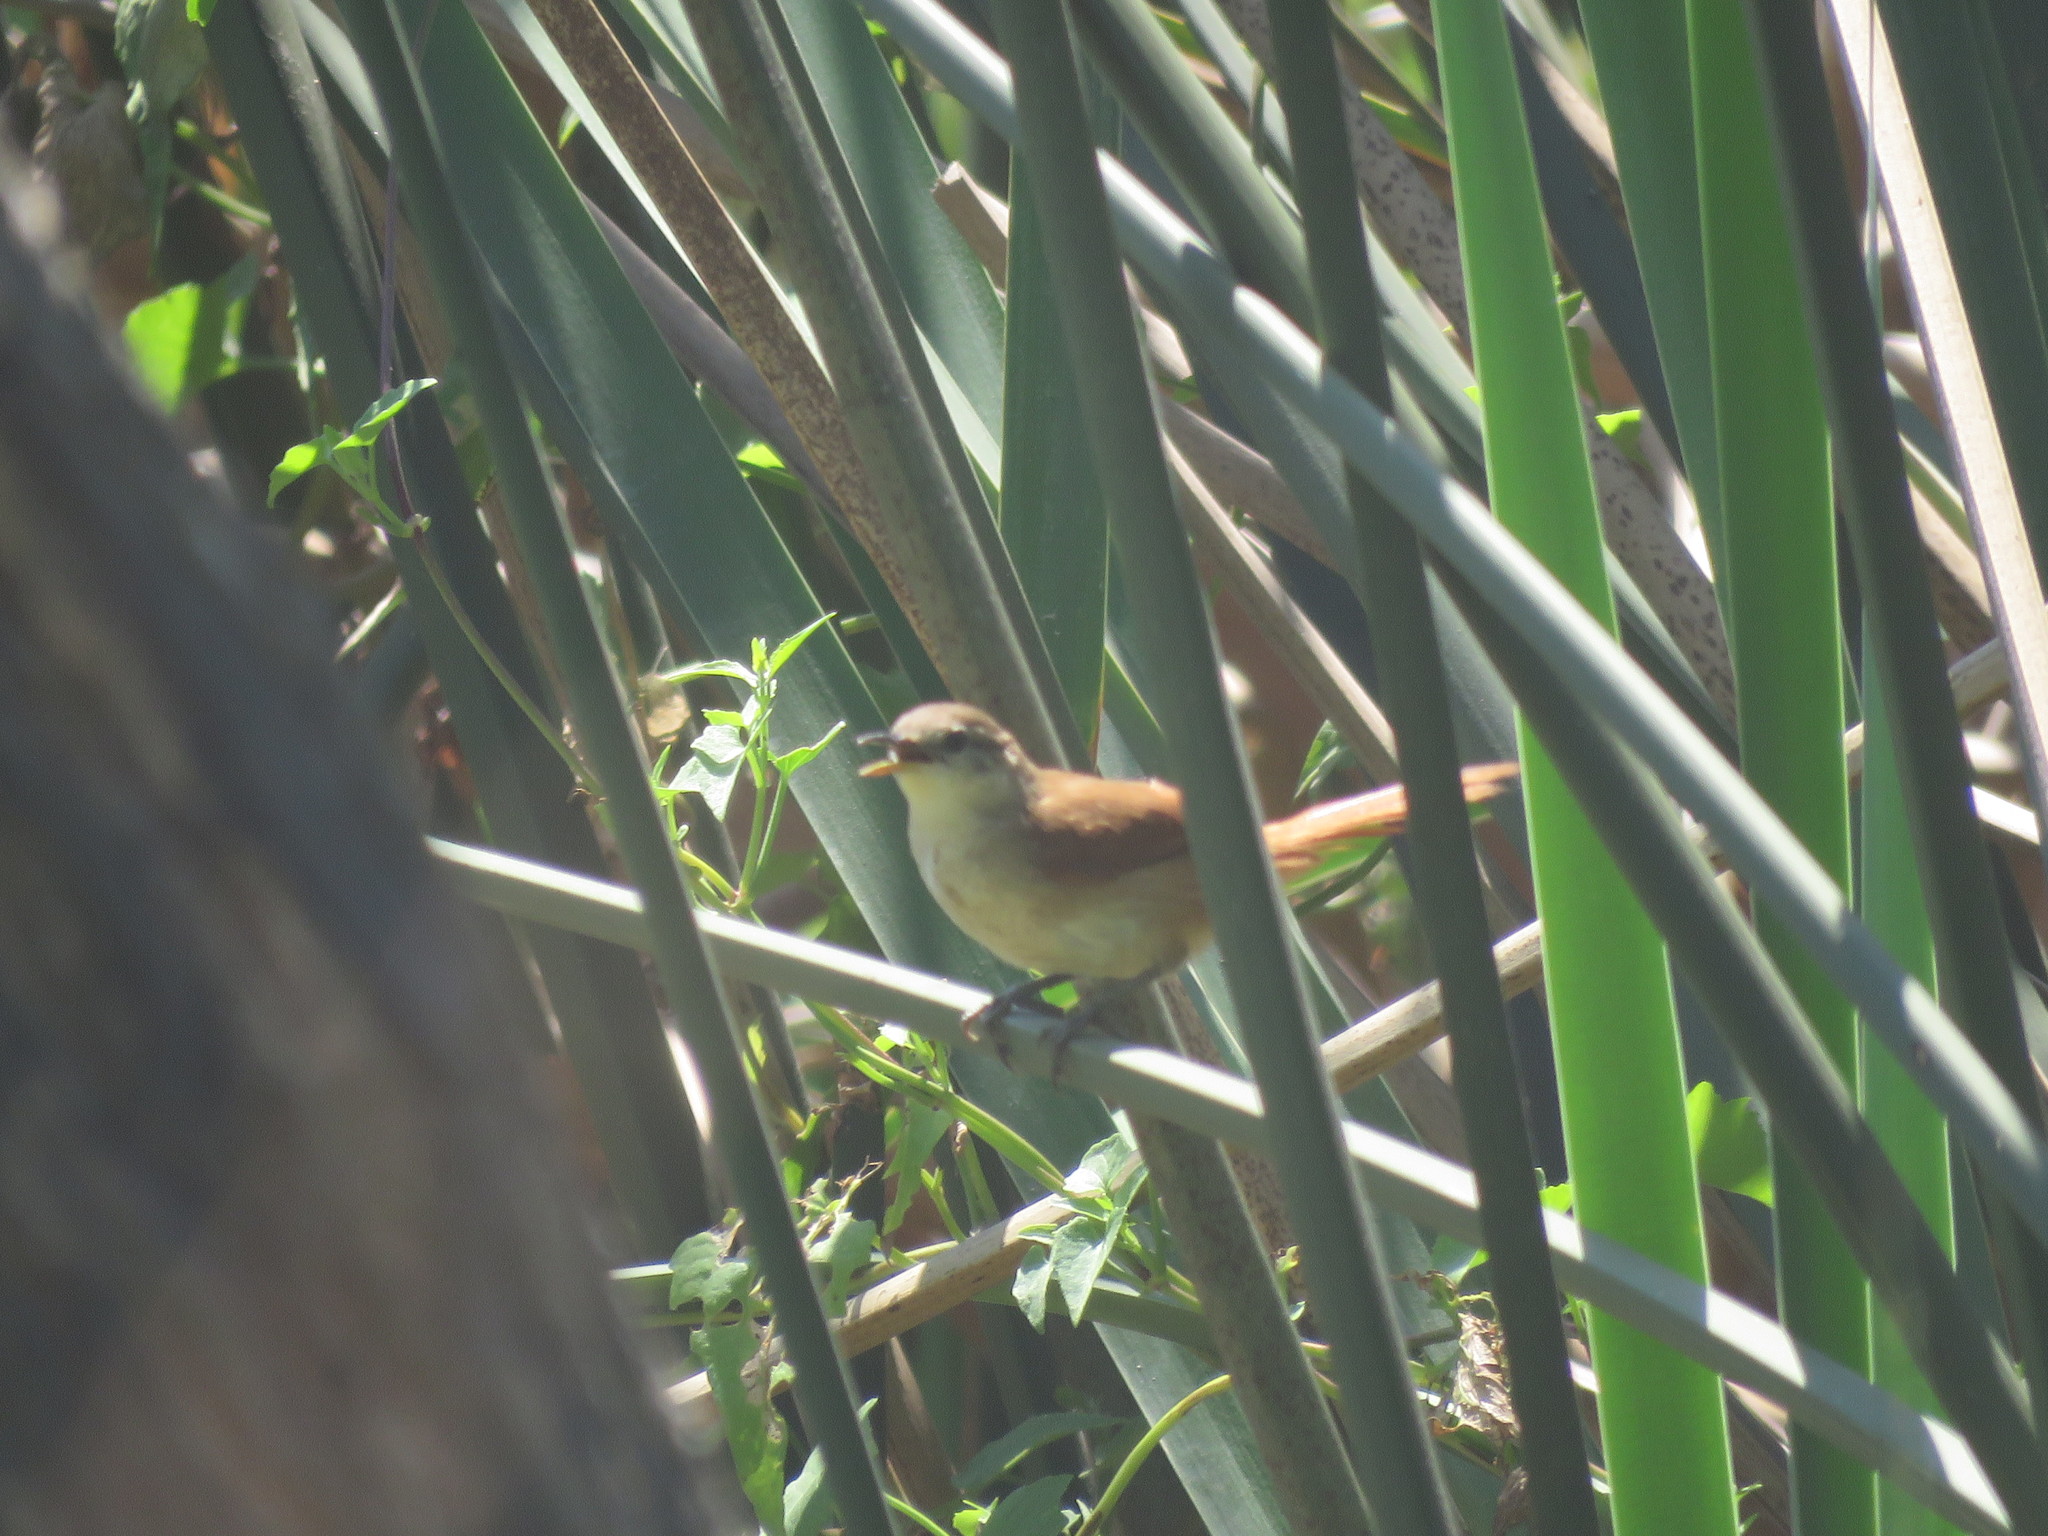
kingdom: Animalia
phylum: Chordata
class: Aves
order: Passeriformes
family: Furnariidae
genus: Limnornis
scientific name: Limnornis curvirostris
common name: Curve-billed reedhaunter
